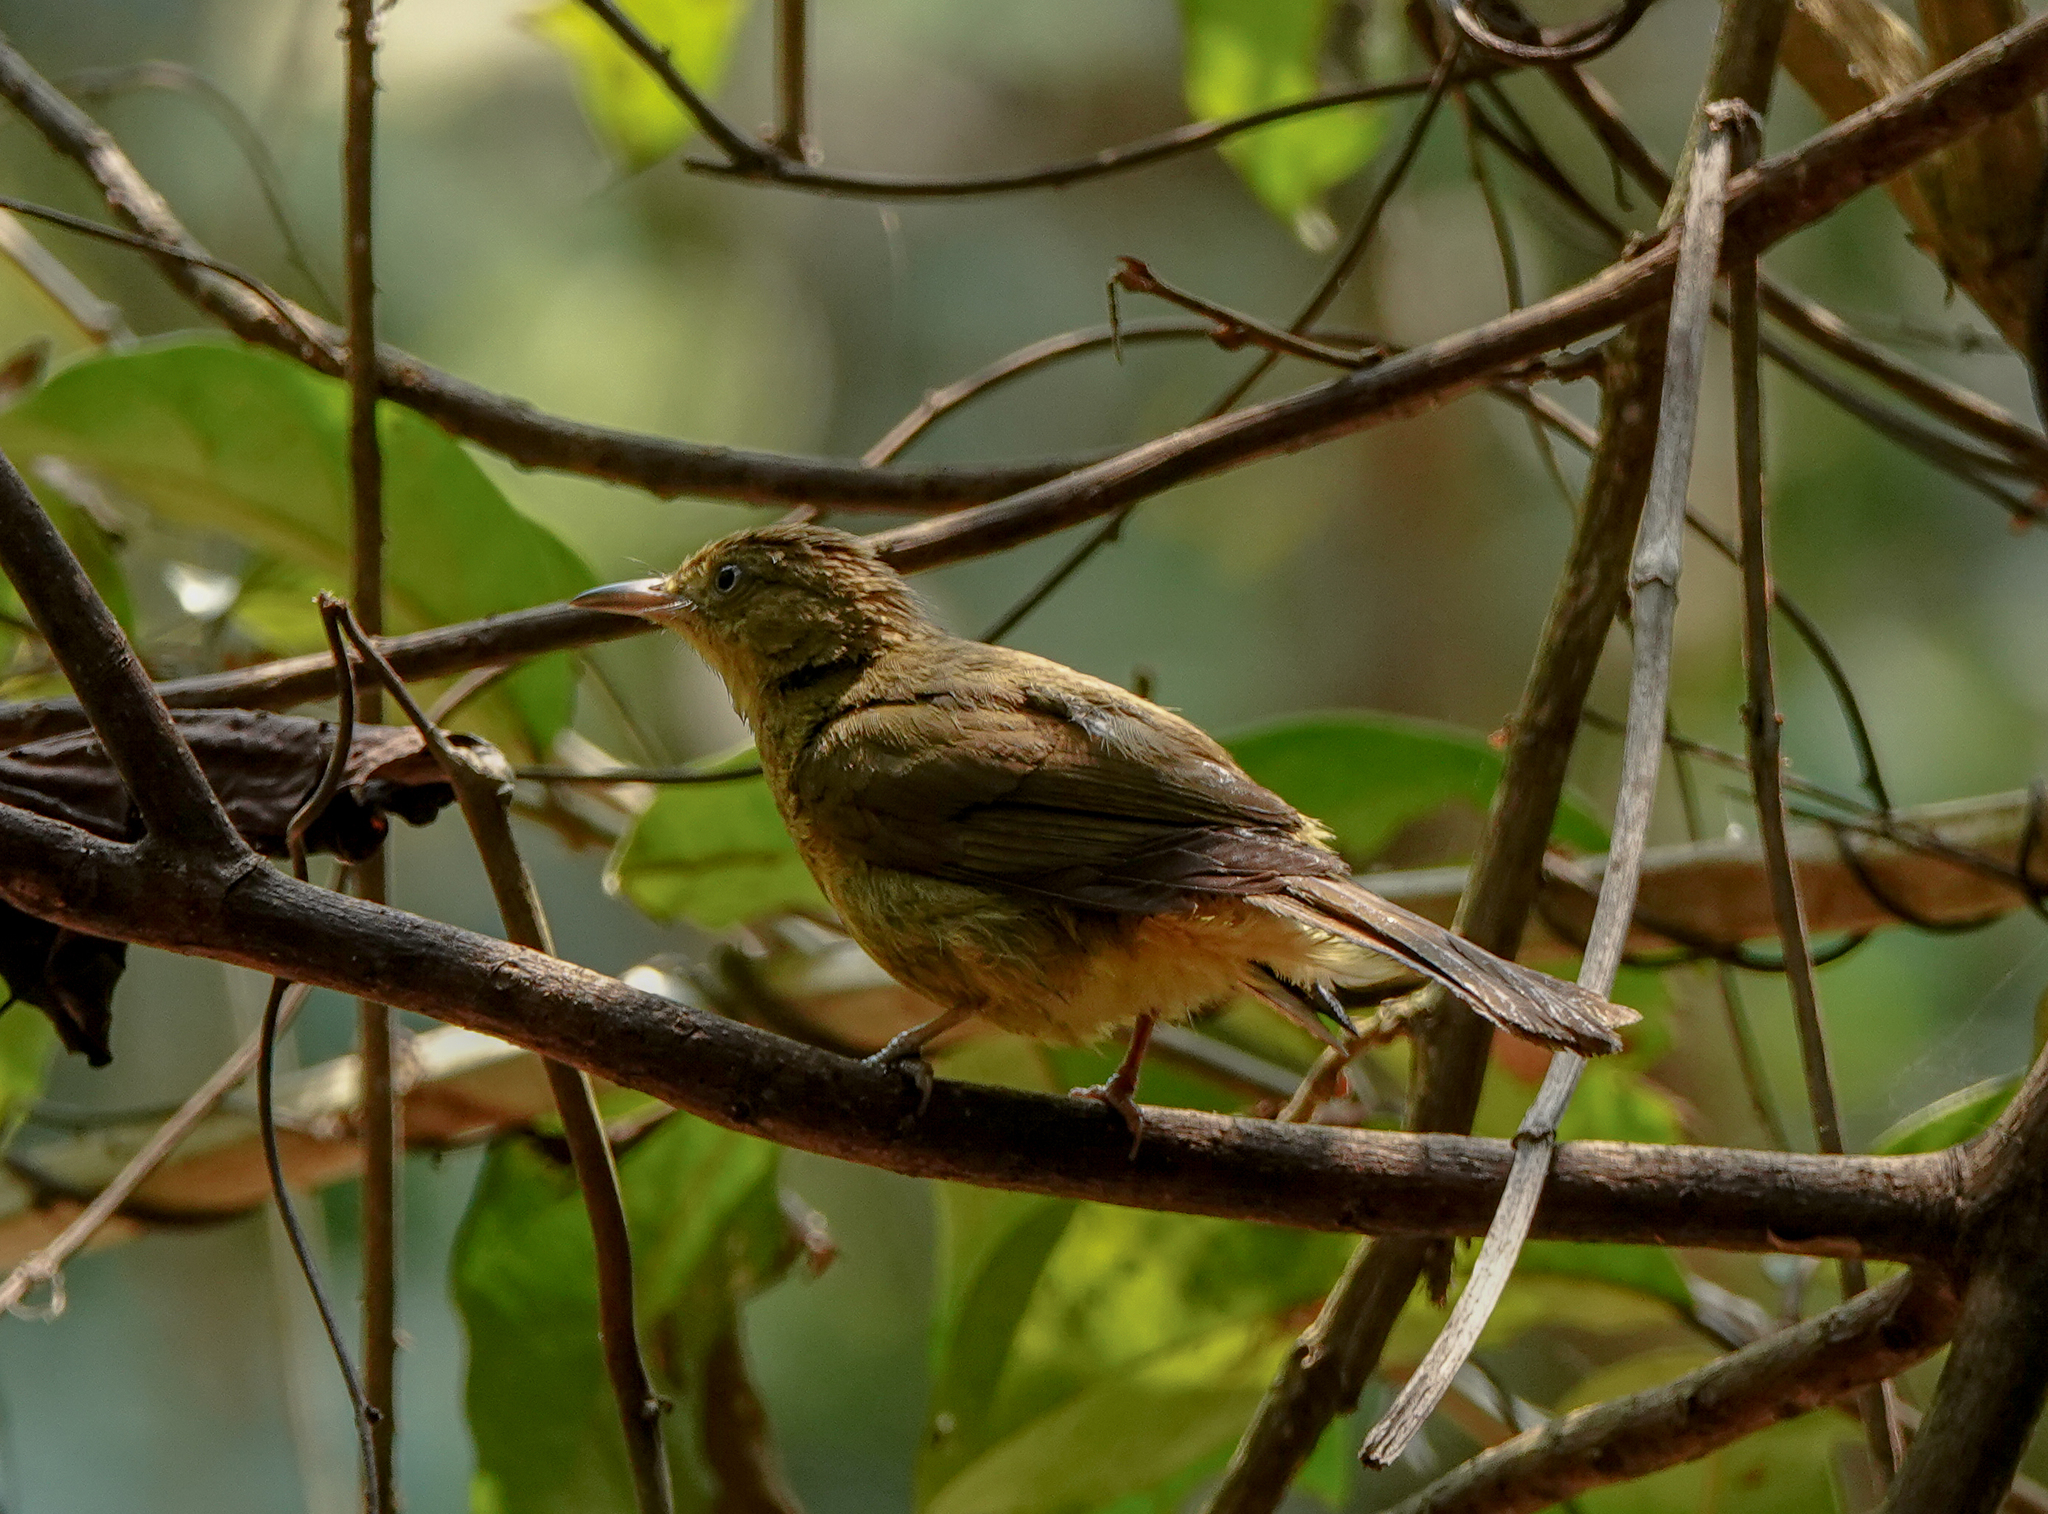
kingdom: Animalia
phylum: Chordata
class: Aves
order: Passeriformes
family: Pycnonotidae
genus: Iole
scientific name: Iole virescens
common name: Olive bulbul
